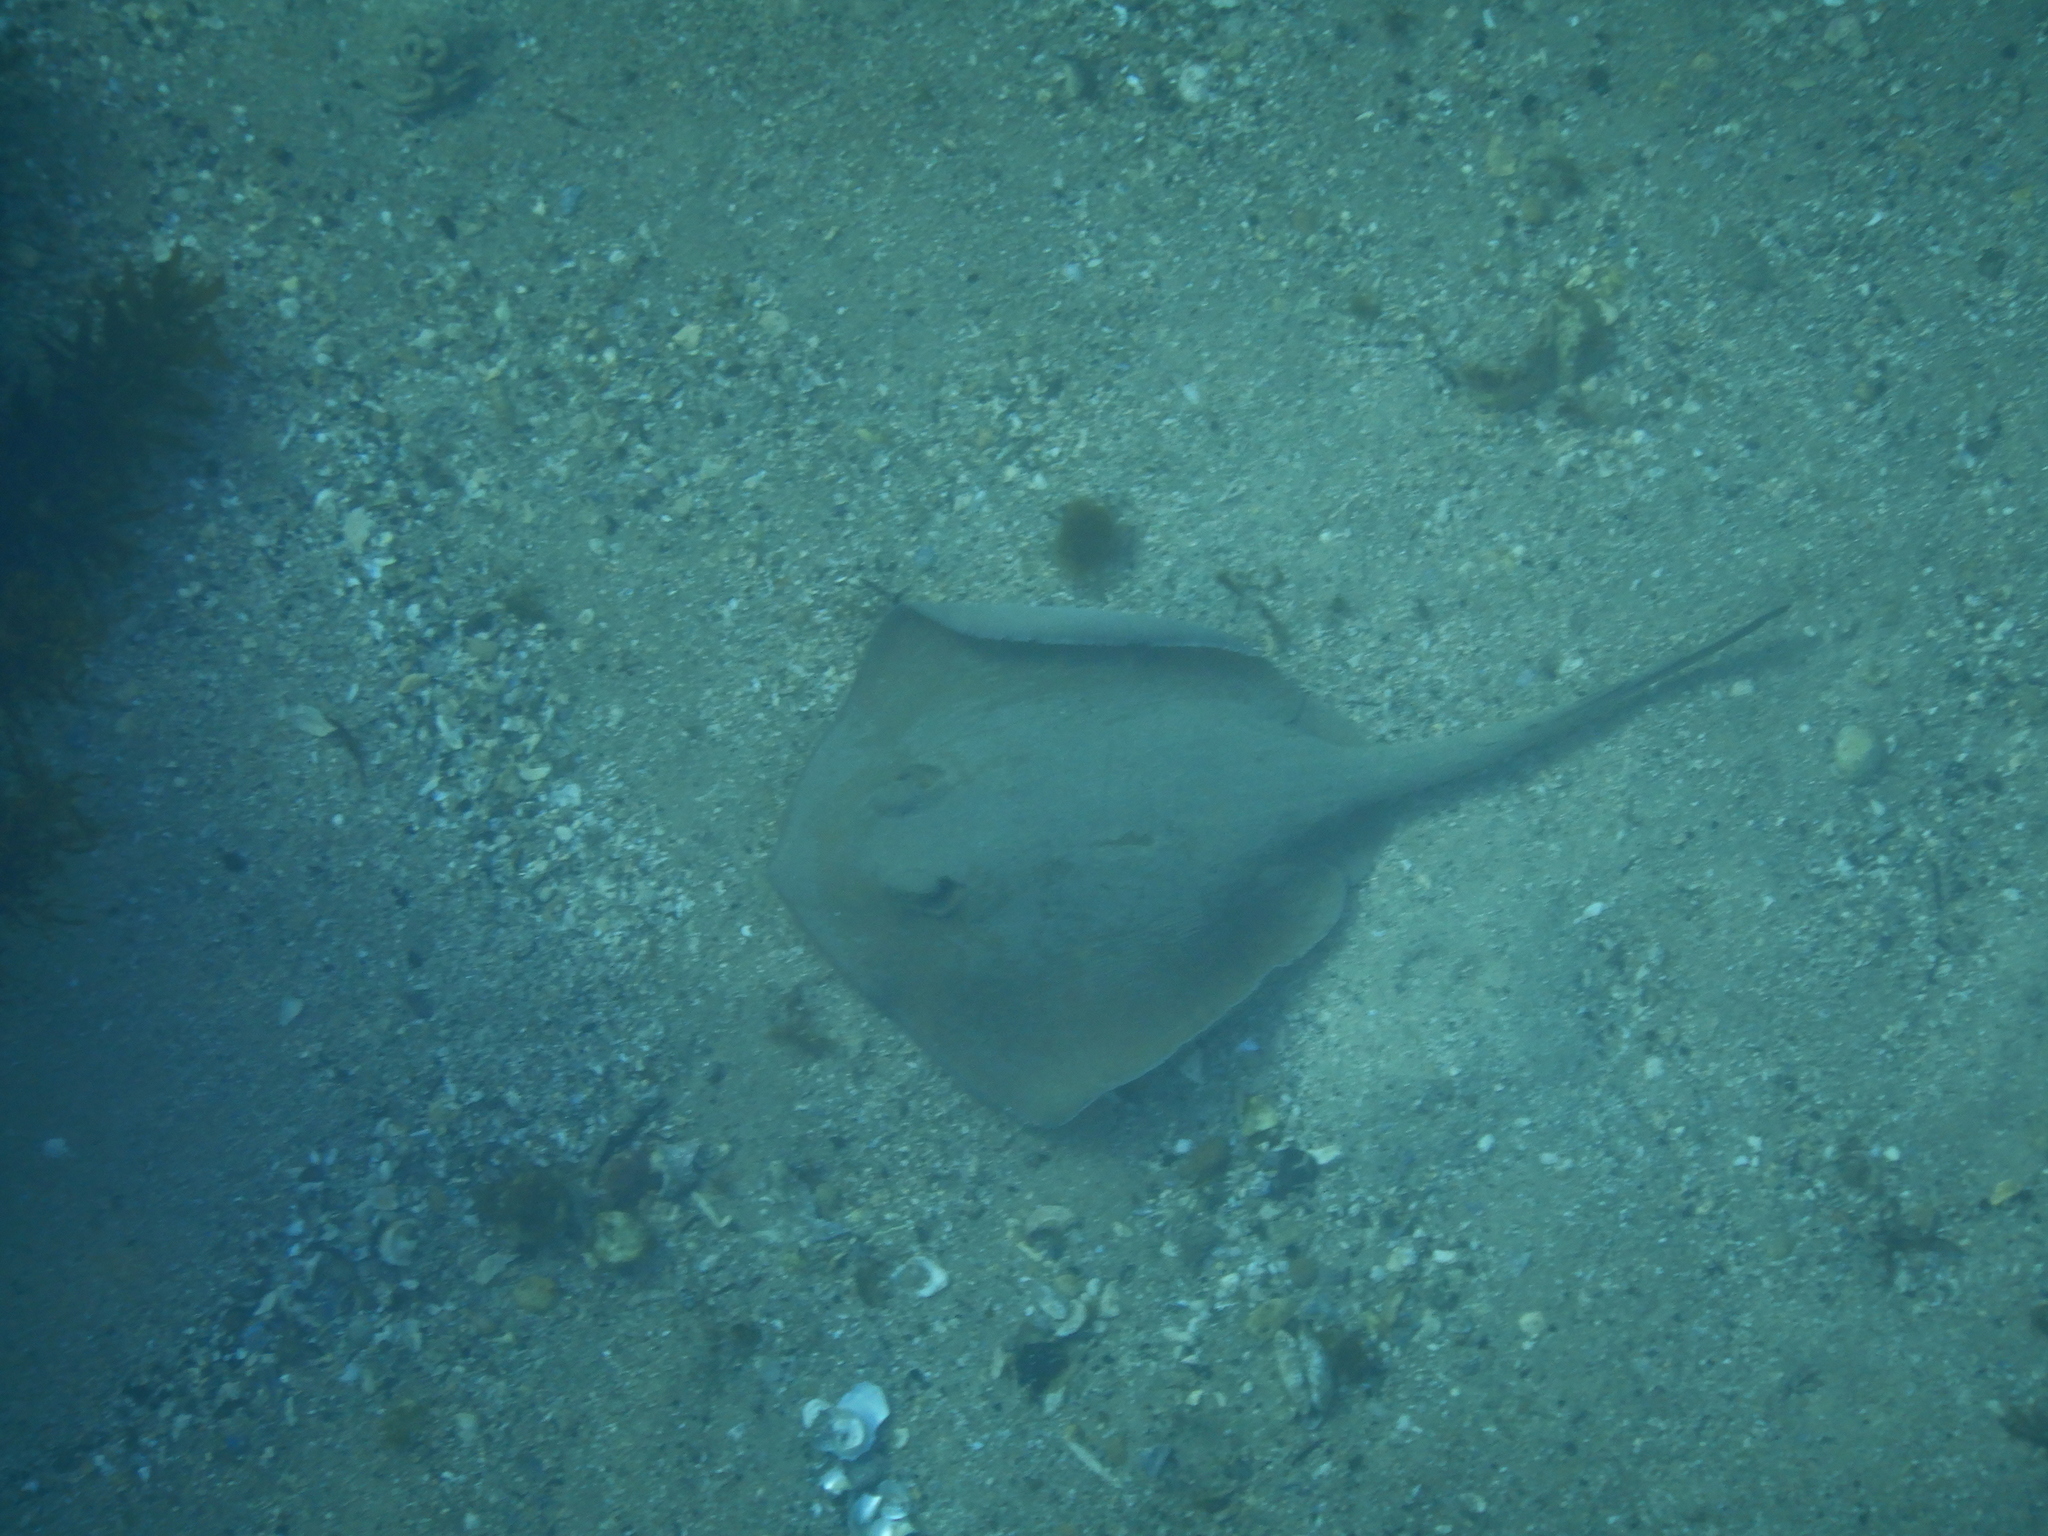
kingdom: Animalia
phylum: Chordata
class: Elasmobranchii
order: Myliobatiformes
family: Urolophidae
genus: Trygonoptera
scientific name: Trygonoptera testacea
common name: Common stingaree
